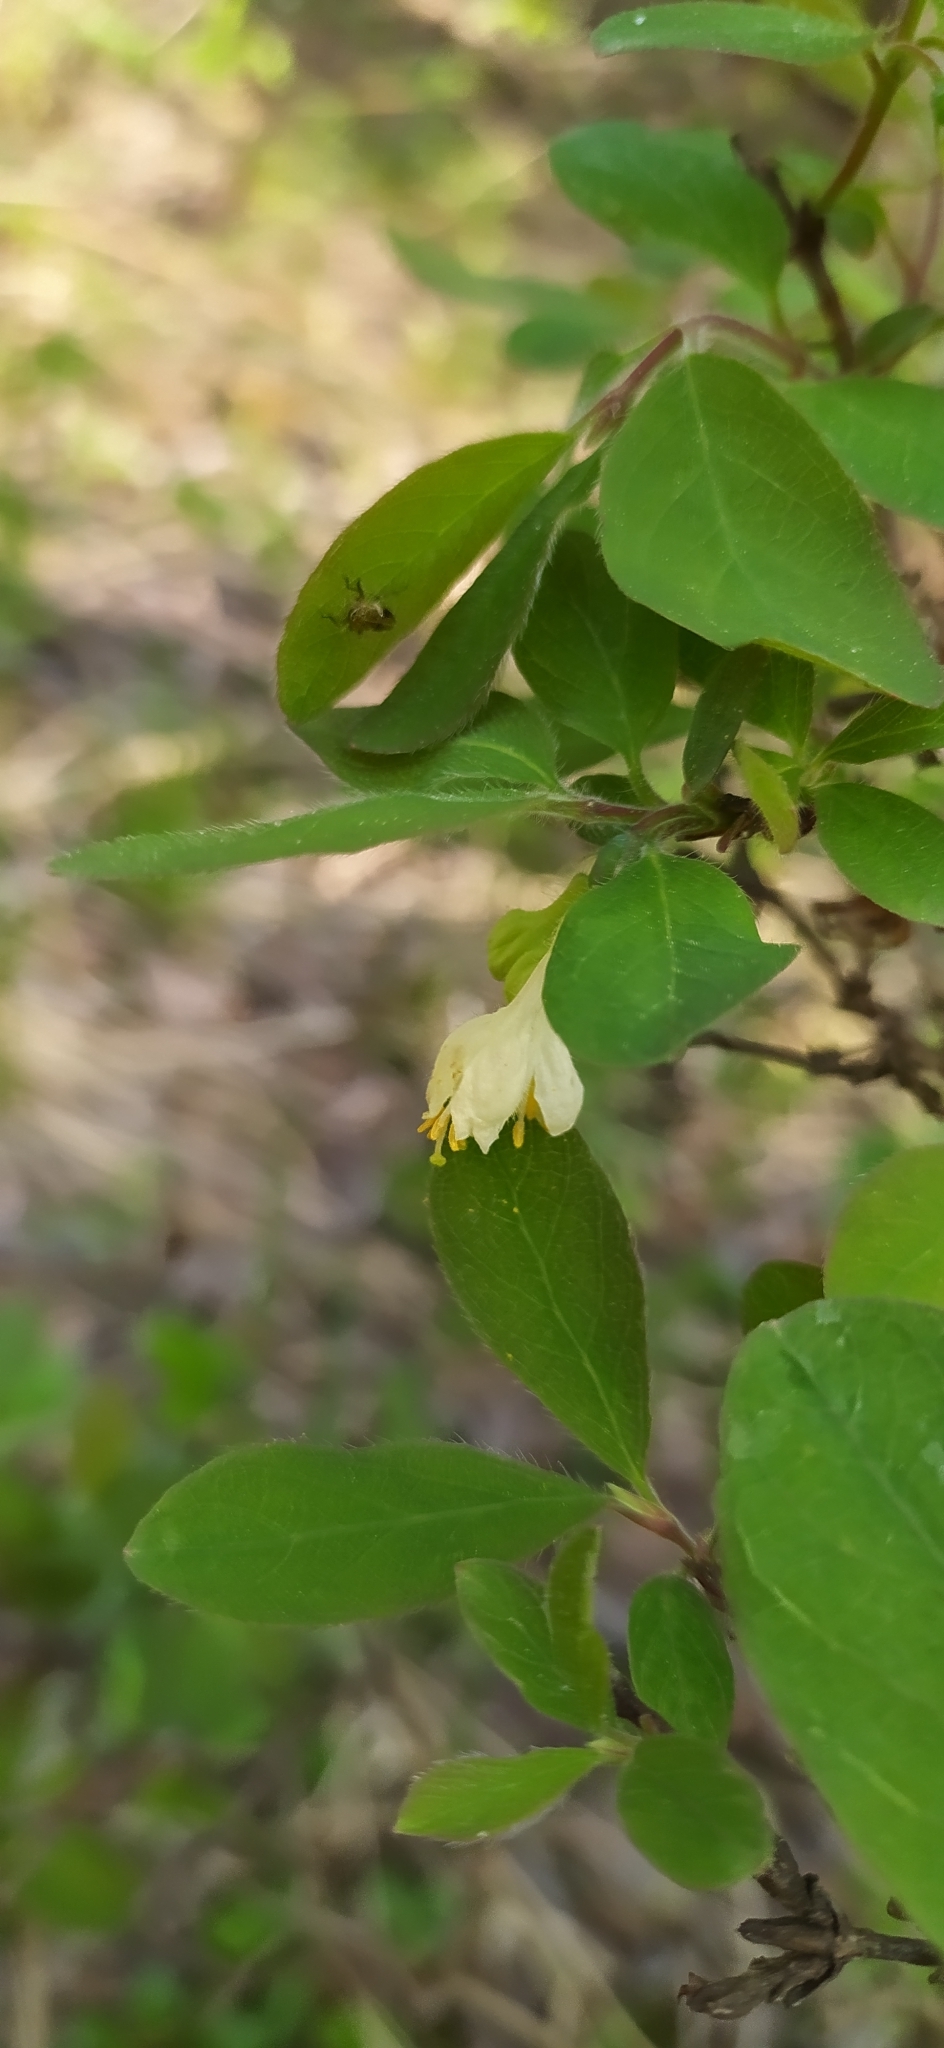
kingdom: Plantae
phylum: Tracheophyta
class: Magnoliopsida
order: Dipsacales
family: Caprifoliaceae
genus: Lonicera
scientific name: Lonicera caerulea
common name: Blue honeysuckle
